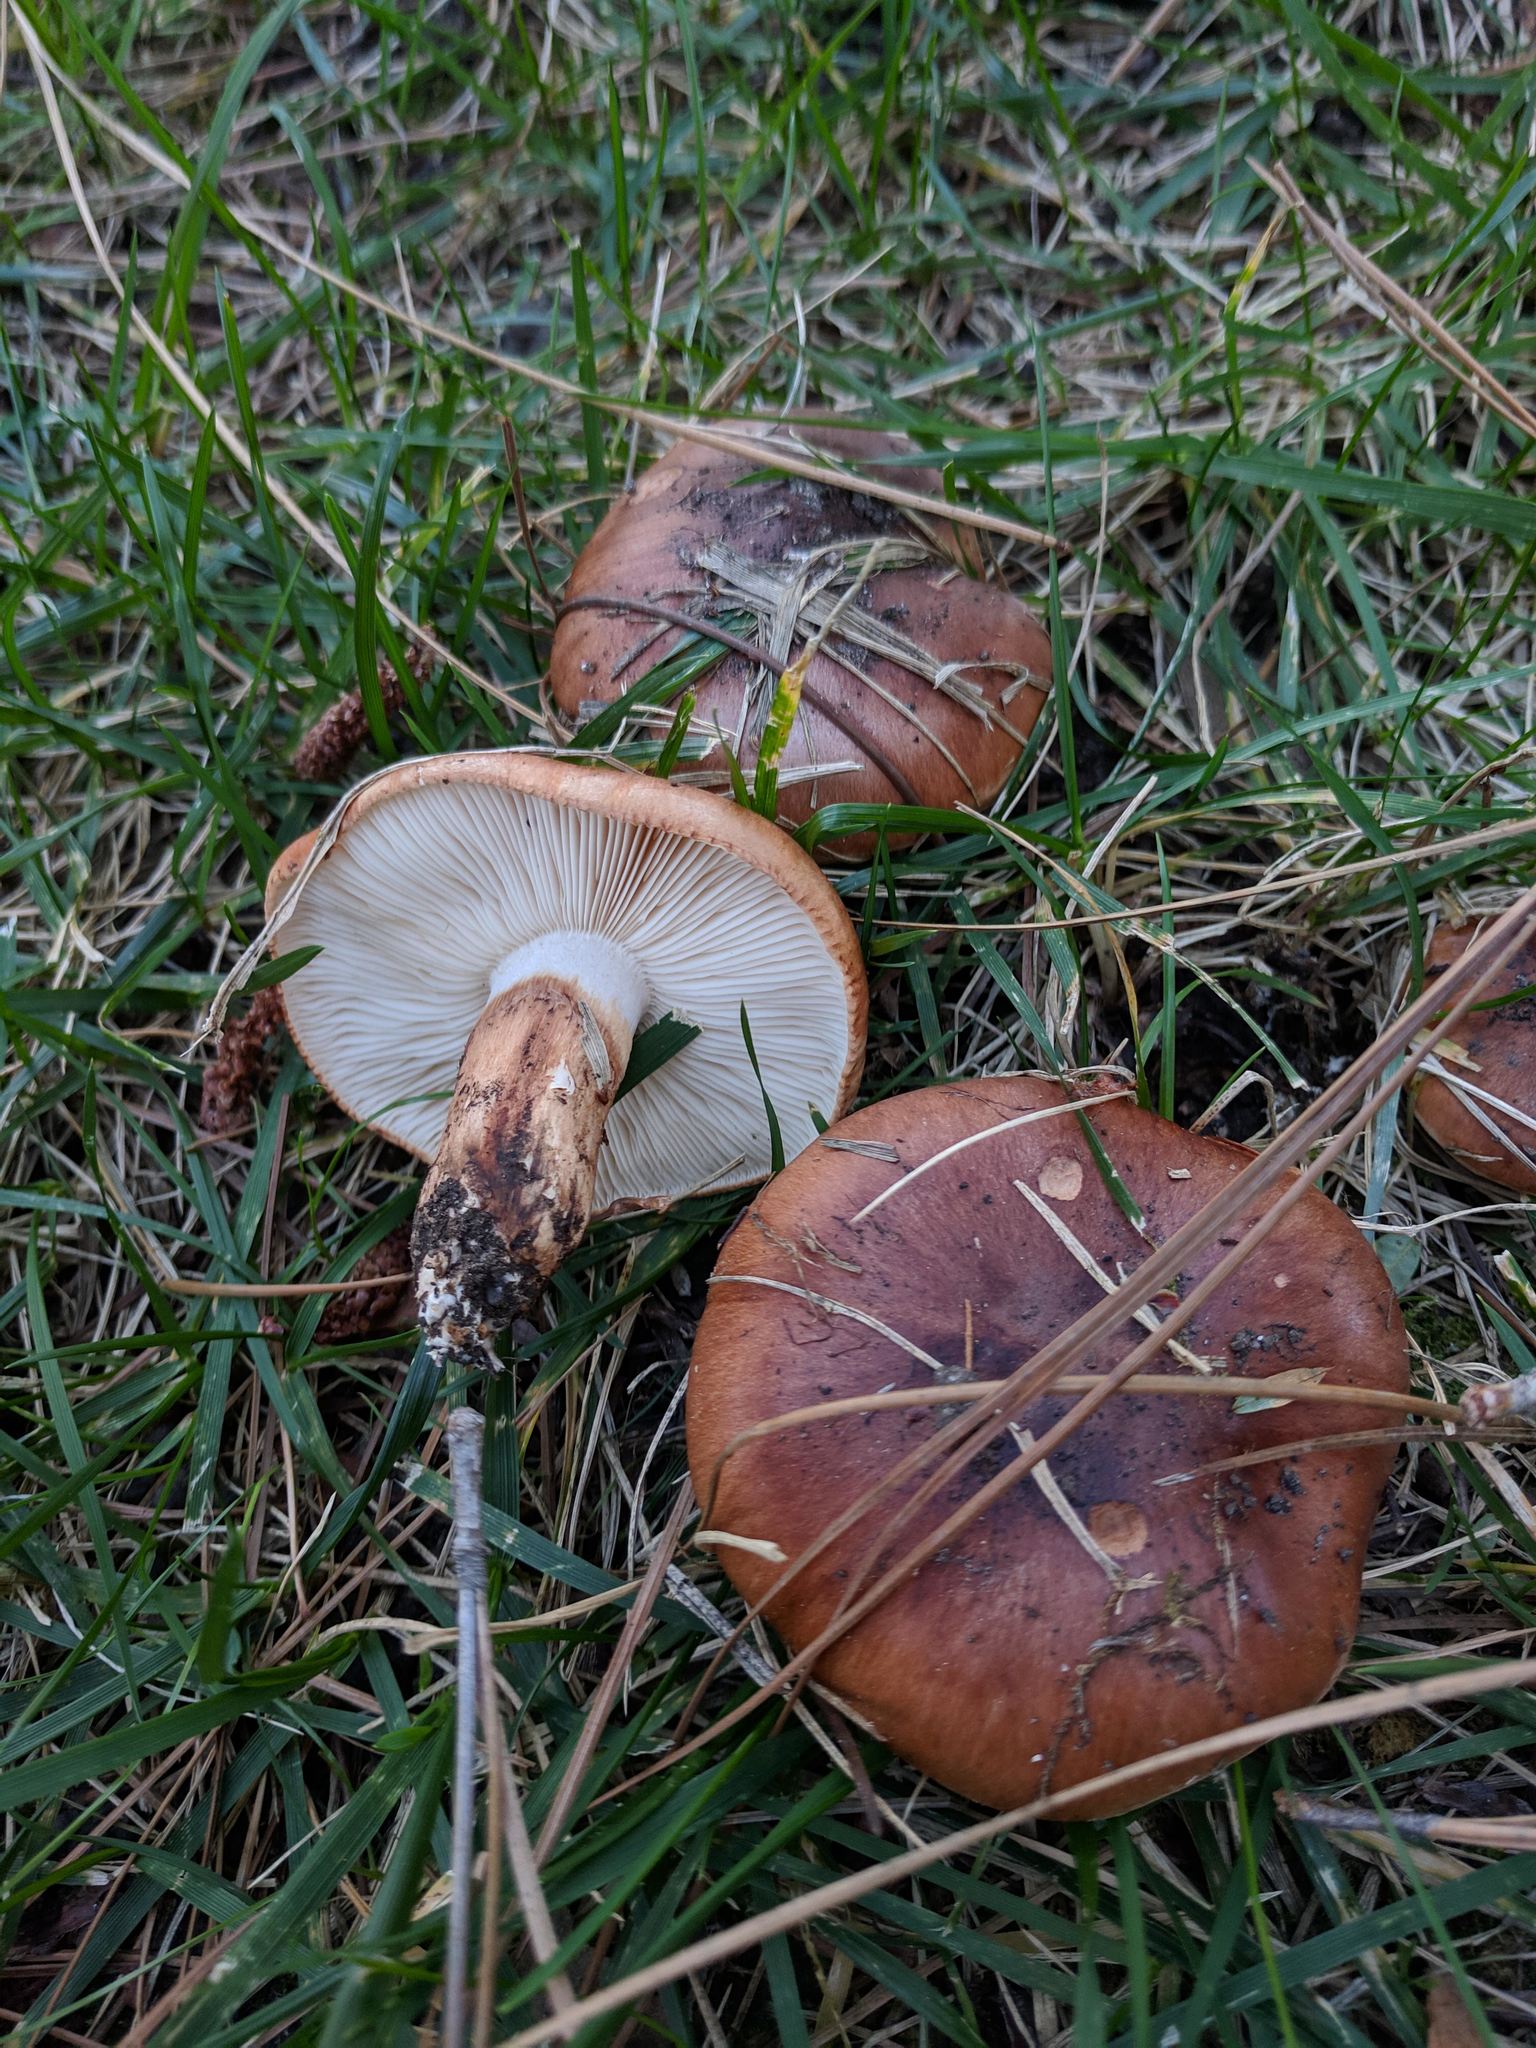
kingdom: Fungi
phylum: Basidiomycota
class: Agaricomycetes
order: Agaricales
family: Tricholomataceae
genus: Tricholoma
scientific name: Tricholoma fracticum
